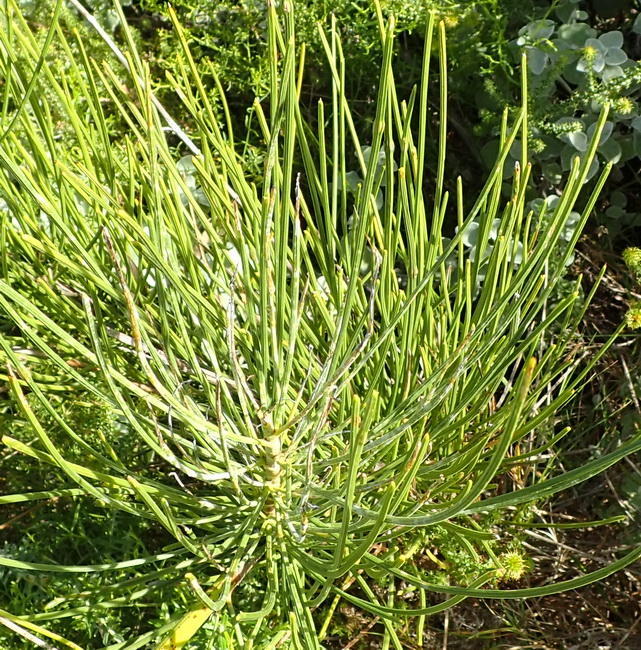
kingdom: Plantae
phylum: Tracheophyta
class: Magnoliopsida
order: Apiales
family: Apiaceae
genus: Anginon
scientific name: Anginon difforme
